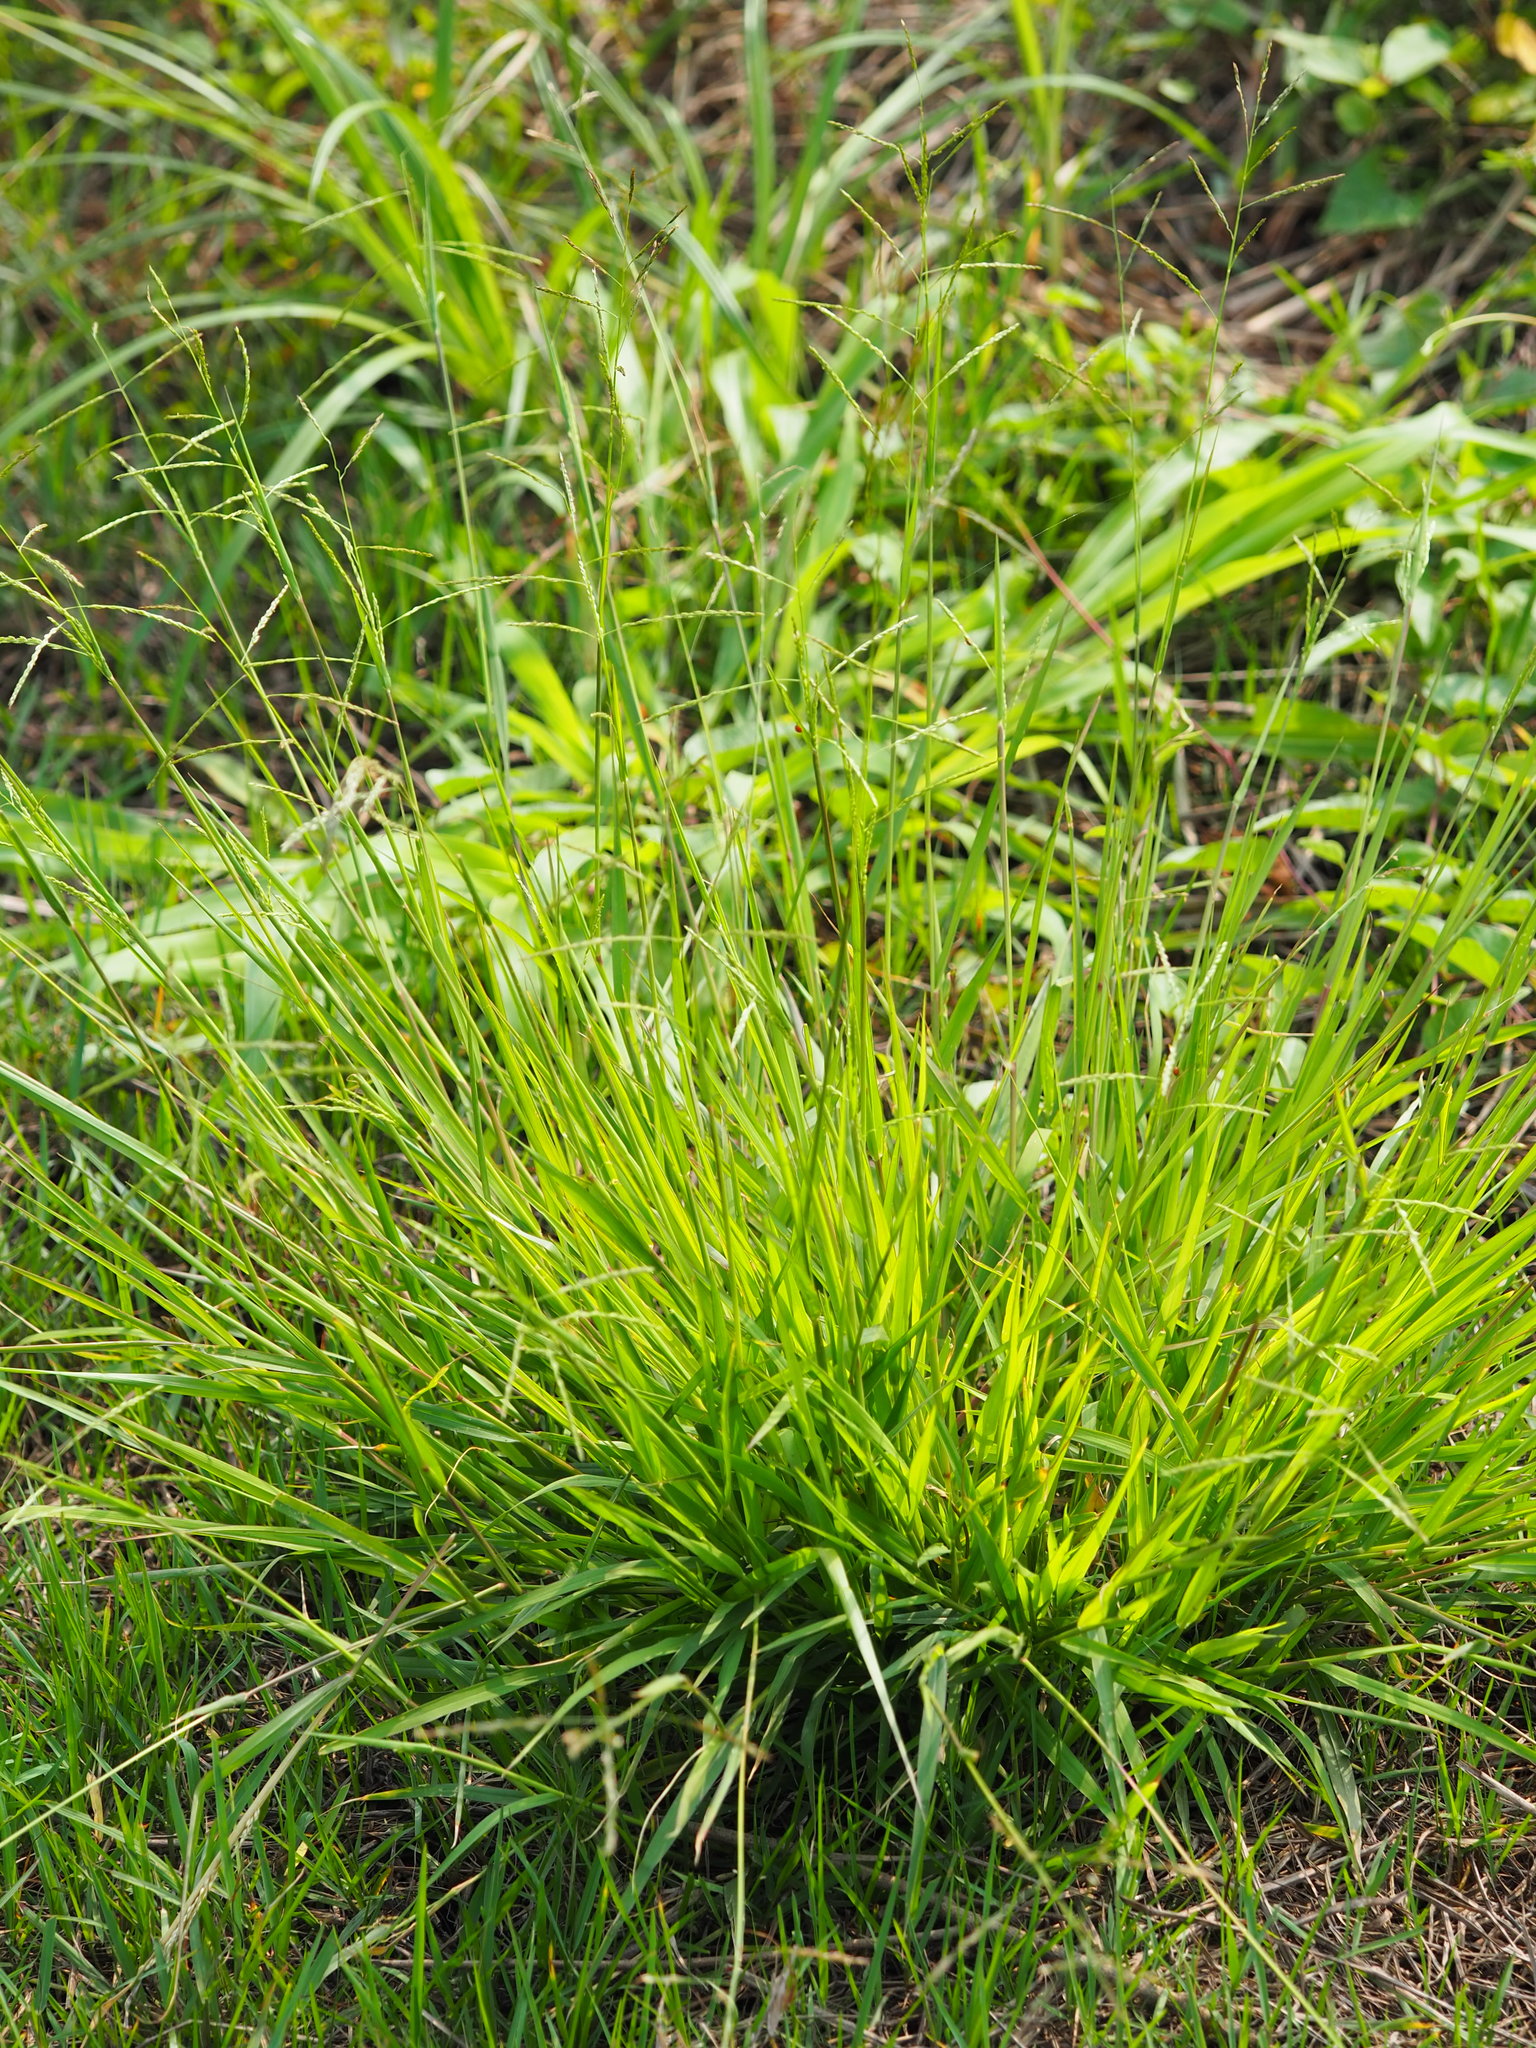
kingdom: Plantae
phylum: Tracheophyta
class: Liliopsida
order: Poales
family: Poaceae
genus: Eriochloa
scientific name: Eriochloa procera
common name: Spring grass
